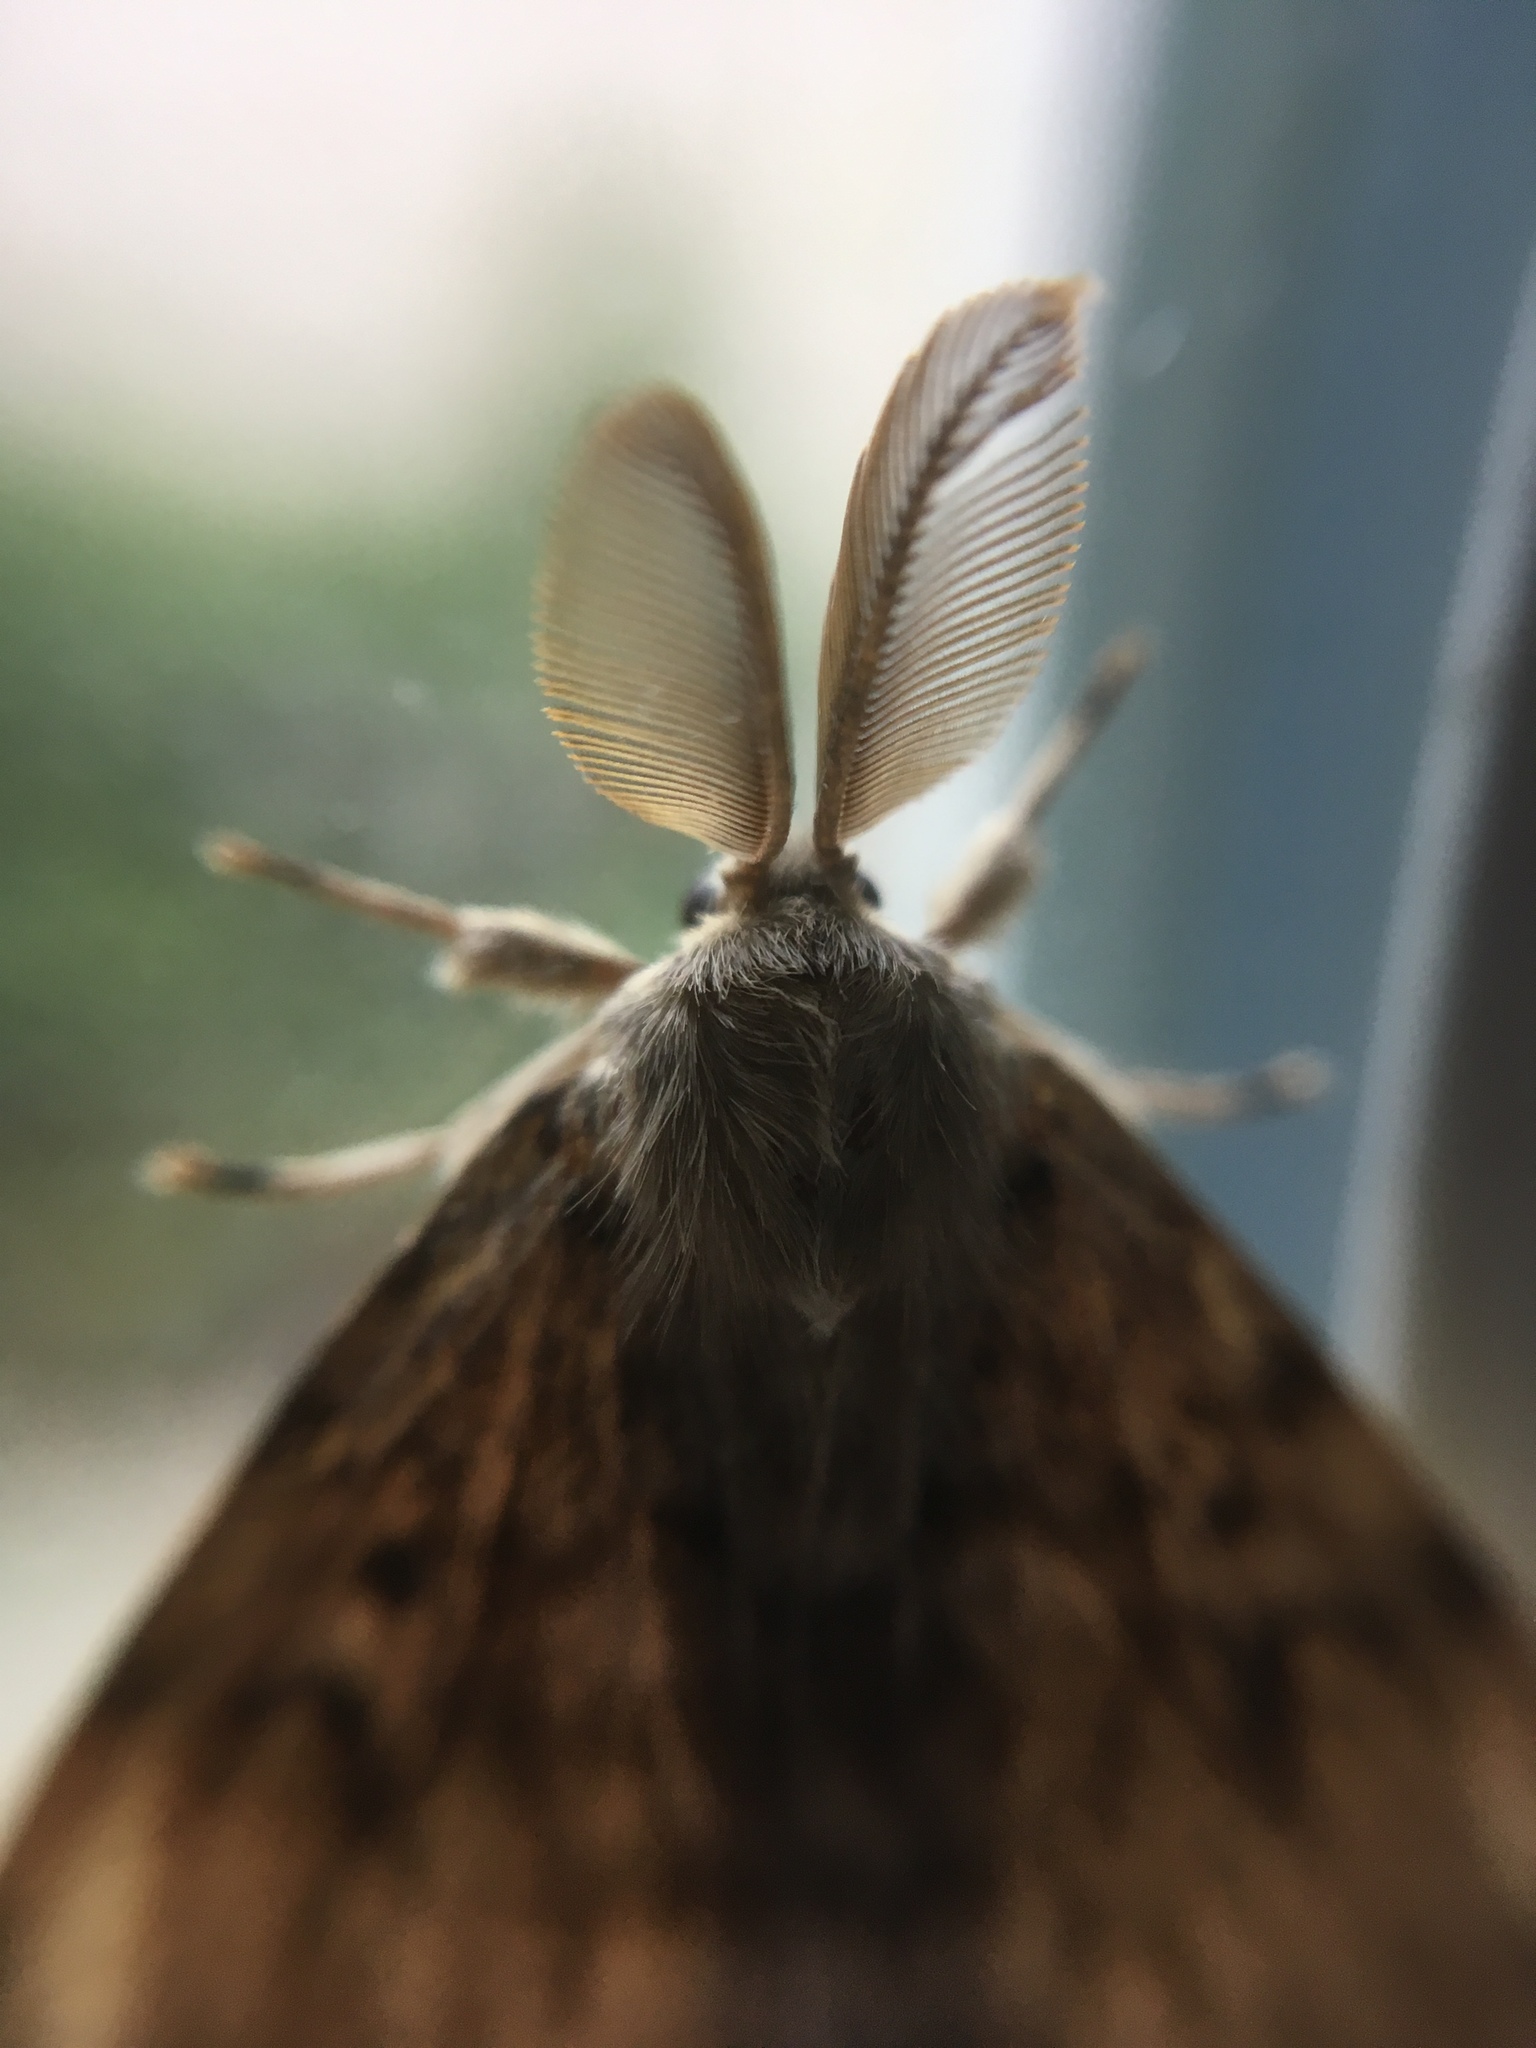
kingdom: Animalia
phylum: Arthropoda
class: Insecta
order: Lepidoptera
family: Erebidae
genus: Lymantria
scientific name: Lymantria dispar
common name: Gypsy moth
